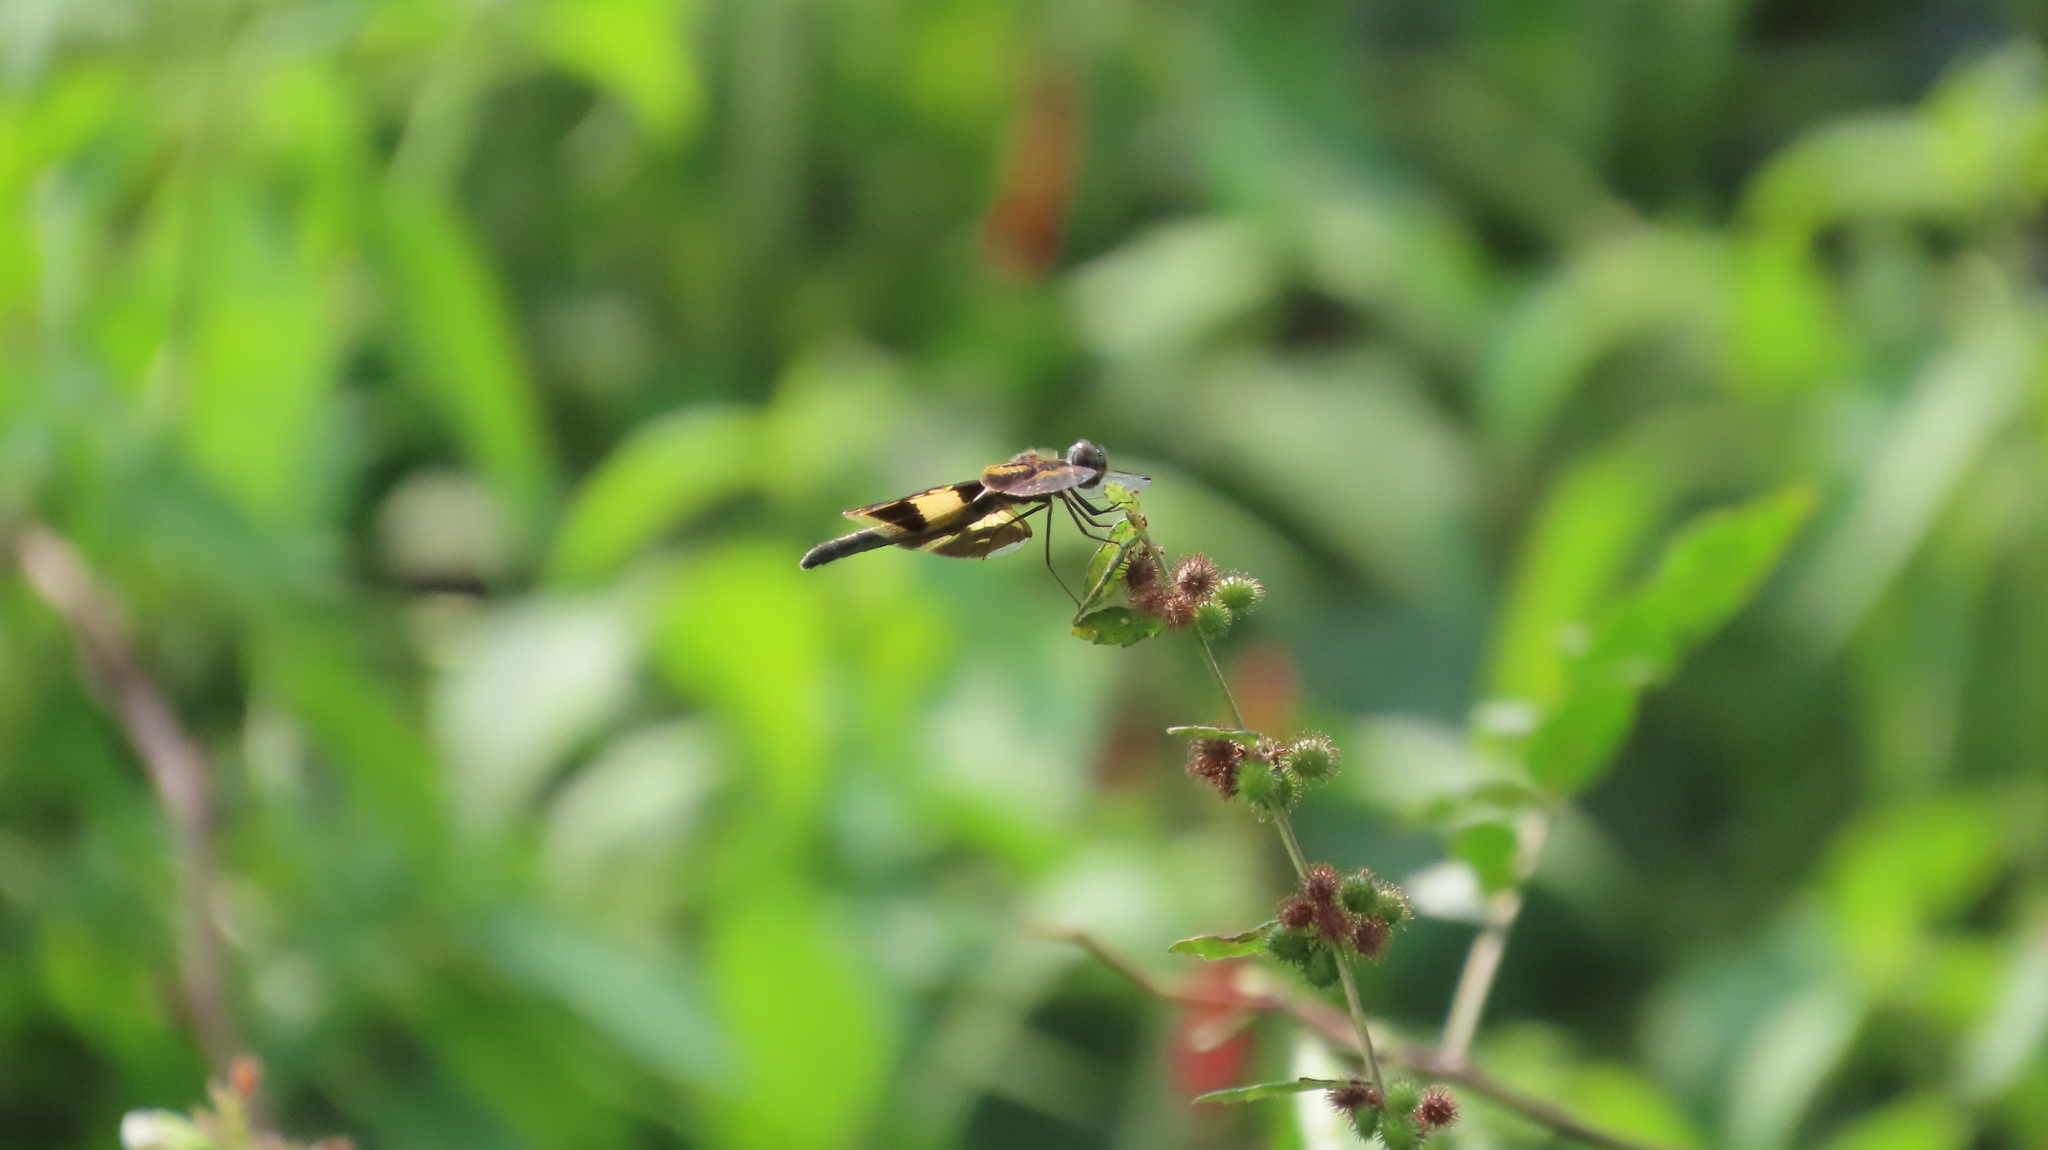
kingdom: Animalia
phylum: Arthropoda
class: Insecta
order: Odonata
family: Libellulidae
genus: Rhyothemis
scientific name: Rhyothemis variegata
